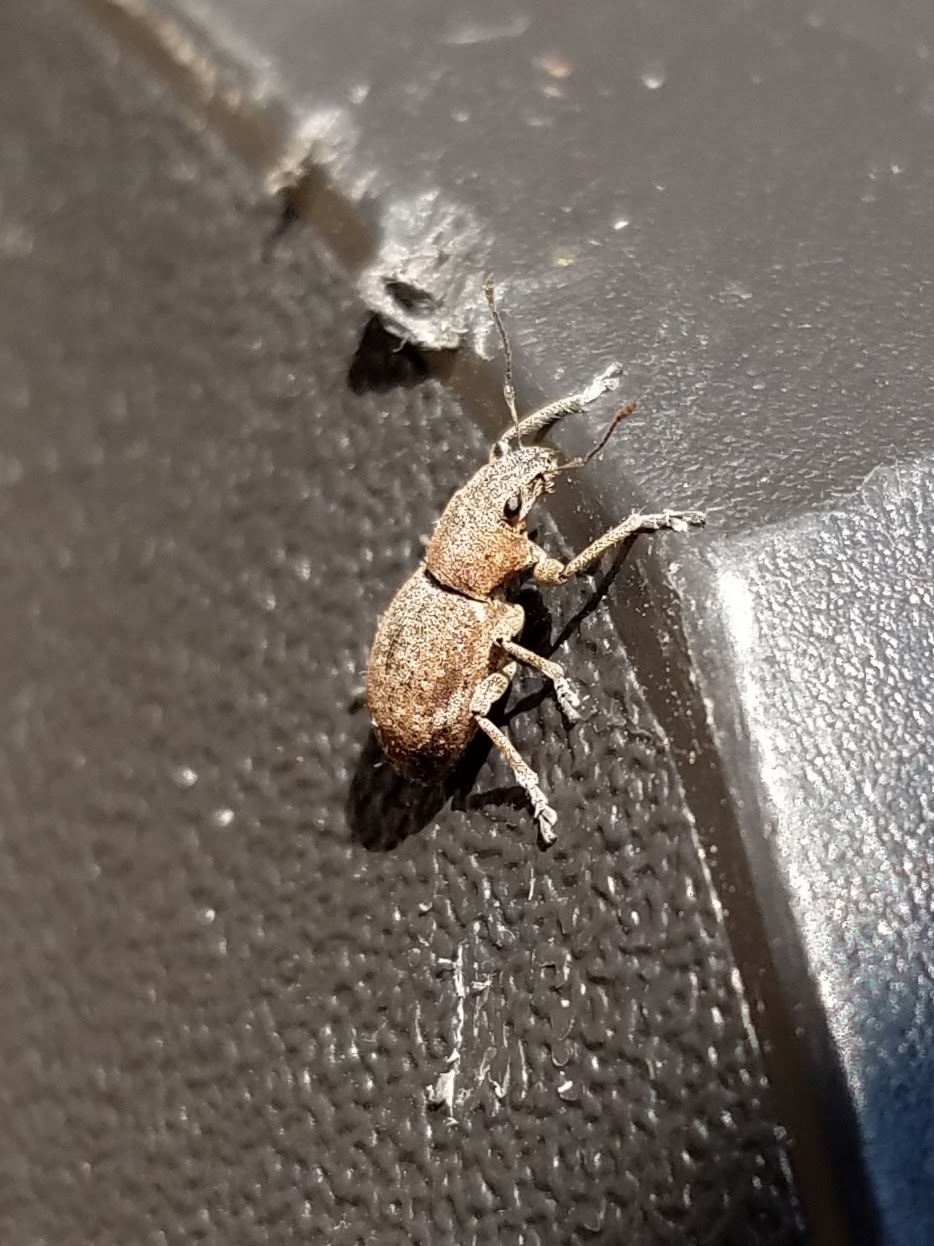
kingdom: Animalia
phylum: Arthropoda
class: Insecta
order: Coleoptera
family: Curculionidae
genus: Naupactus
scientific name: Naupactus cervinus
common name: Fuller rose beetle
